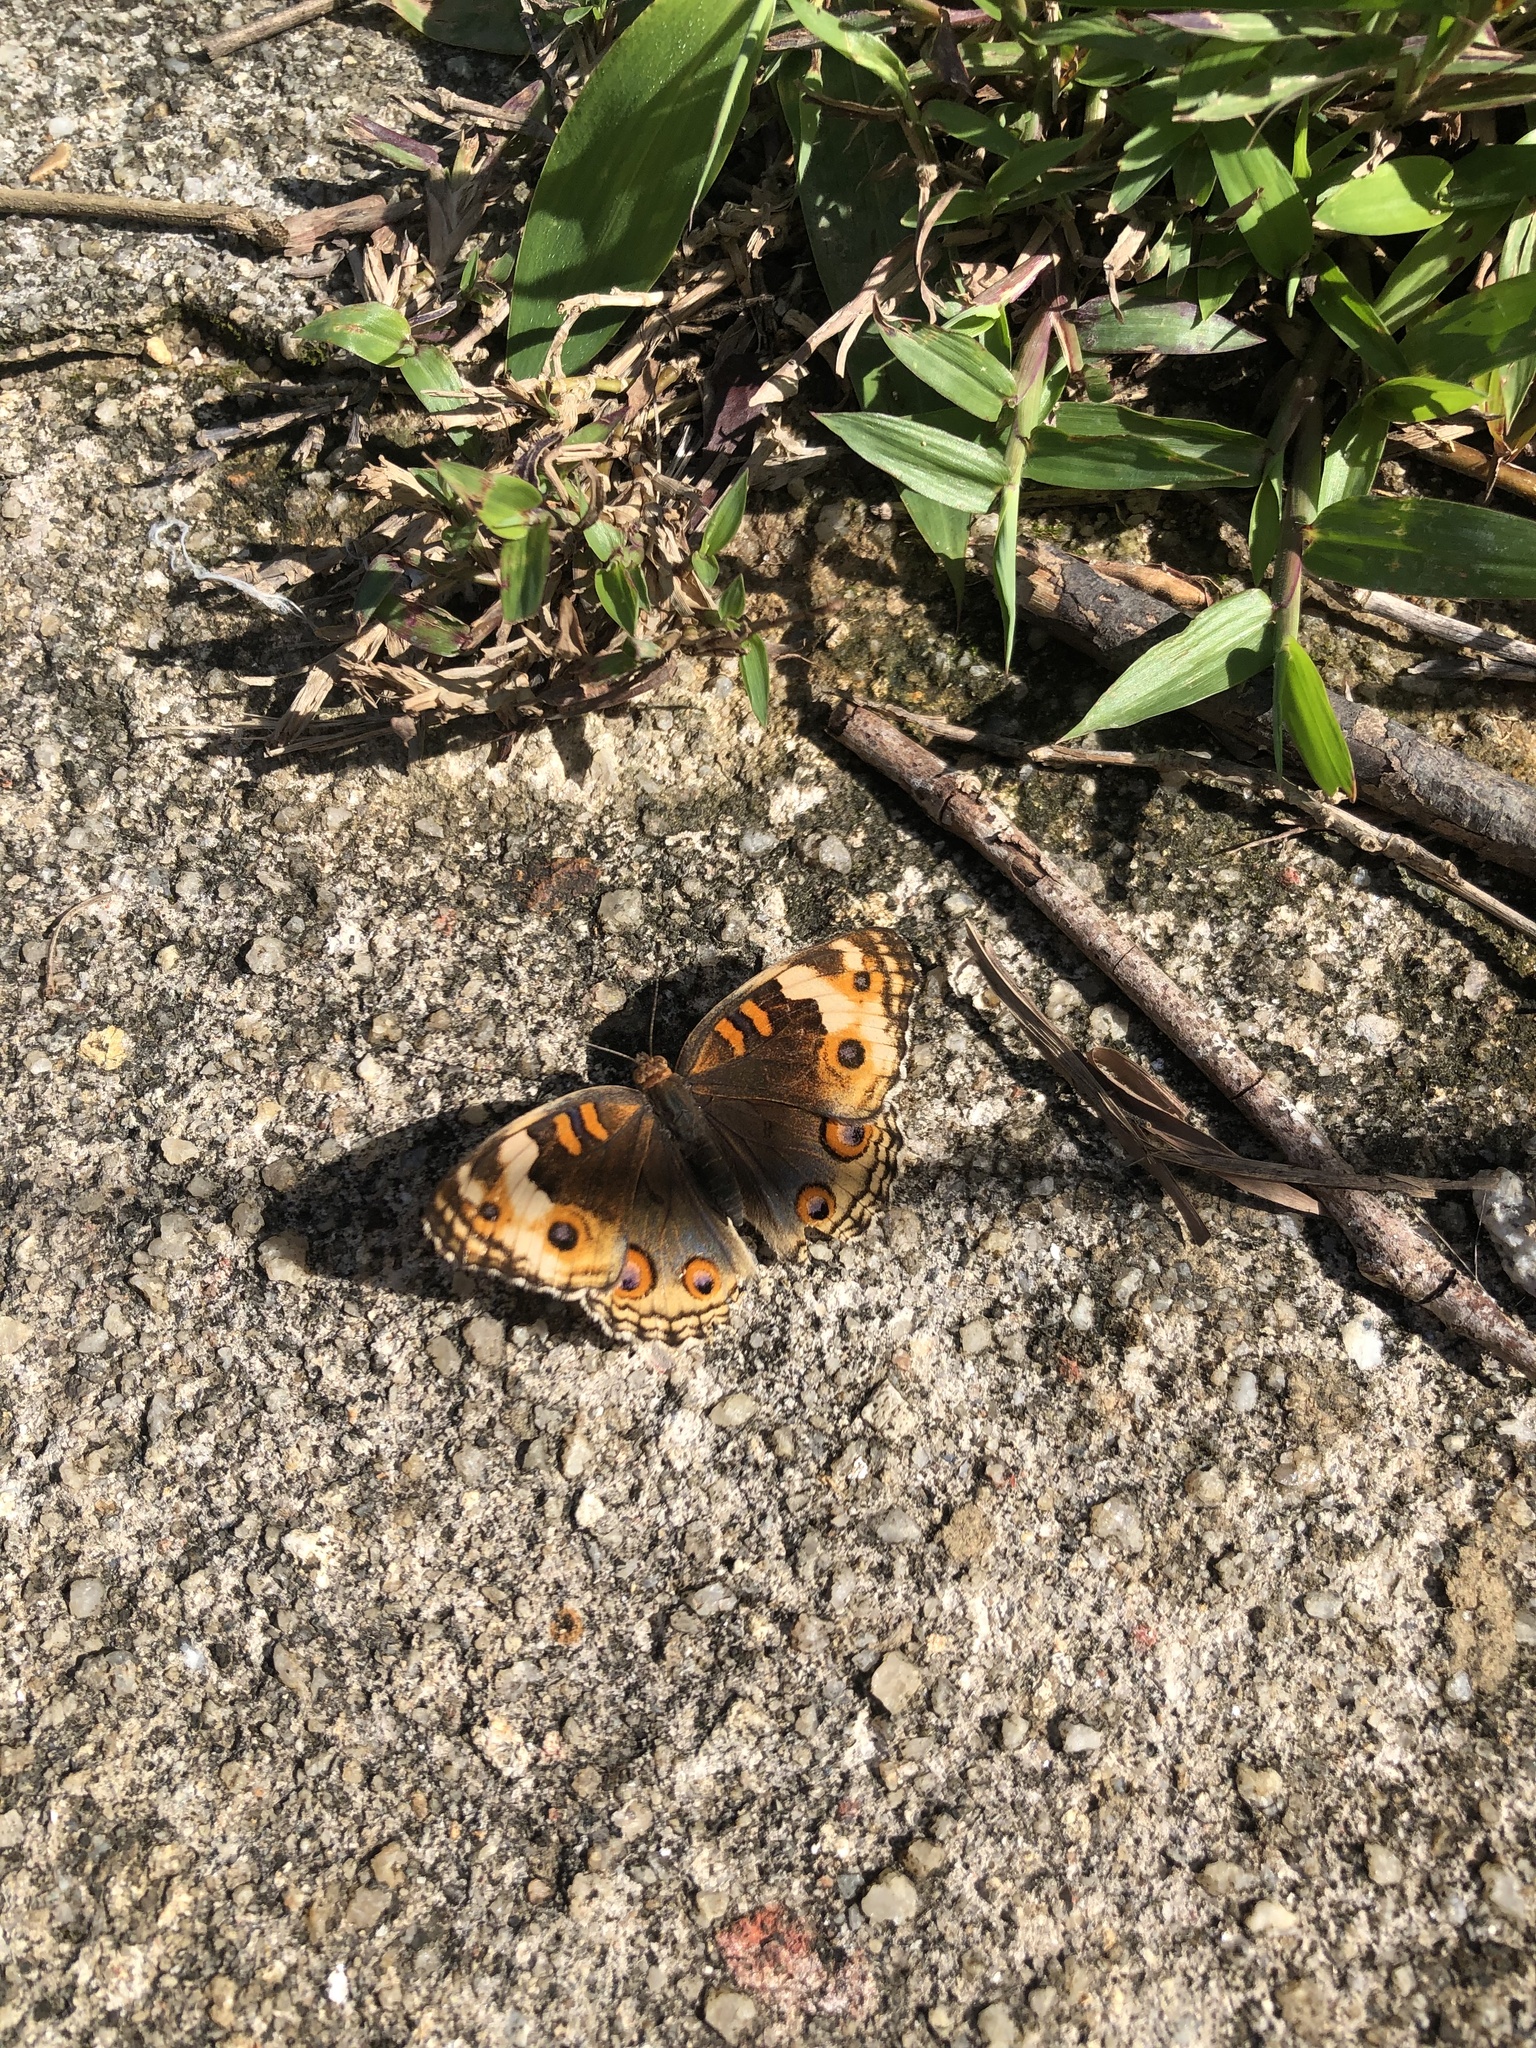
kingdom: Animalia
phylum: Arthropoda
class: Insecta
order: Lepidoptera
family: Nymphalidae
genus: Junonia
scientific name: Junonia orithya
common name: Blue pansy
